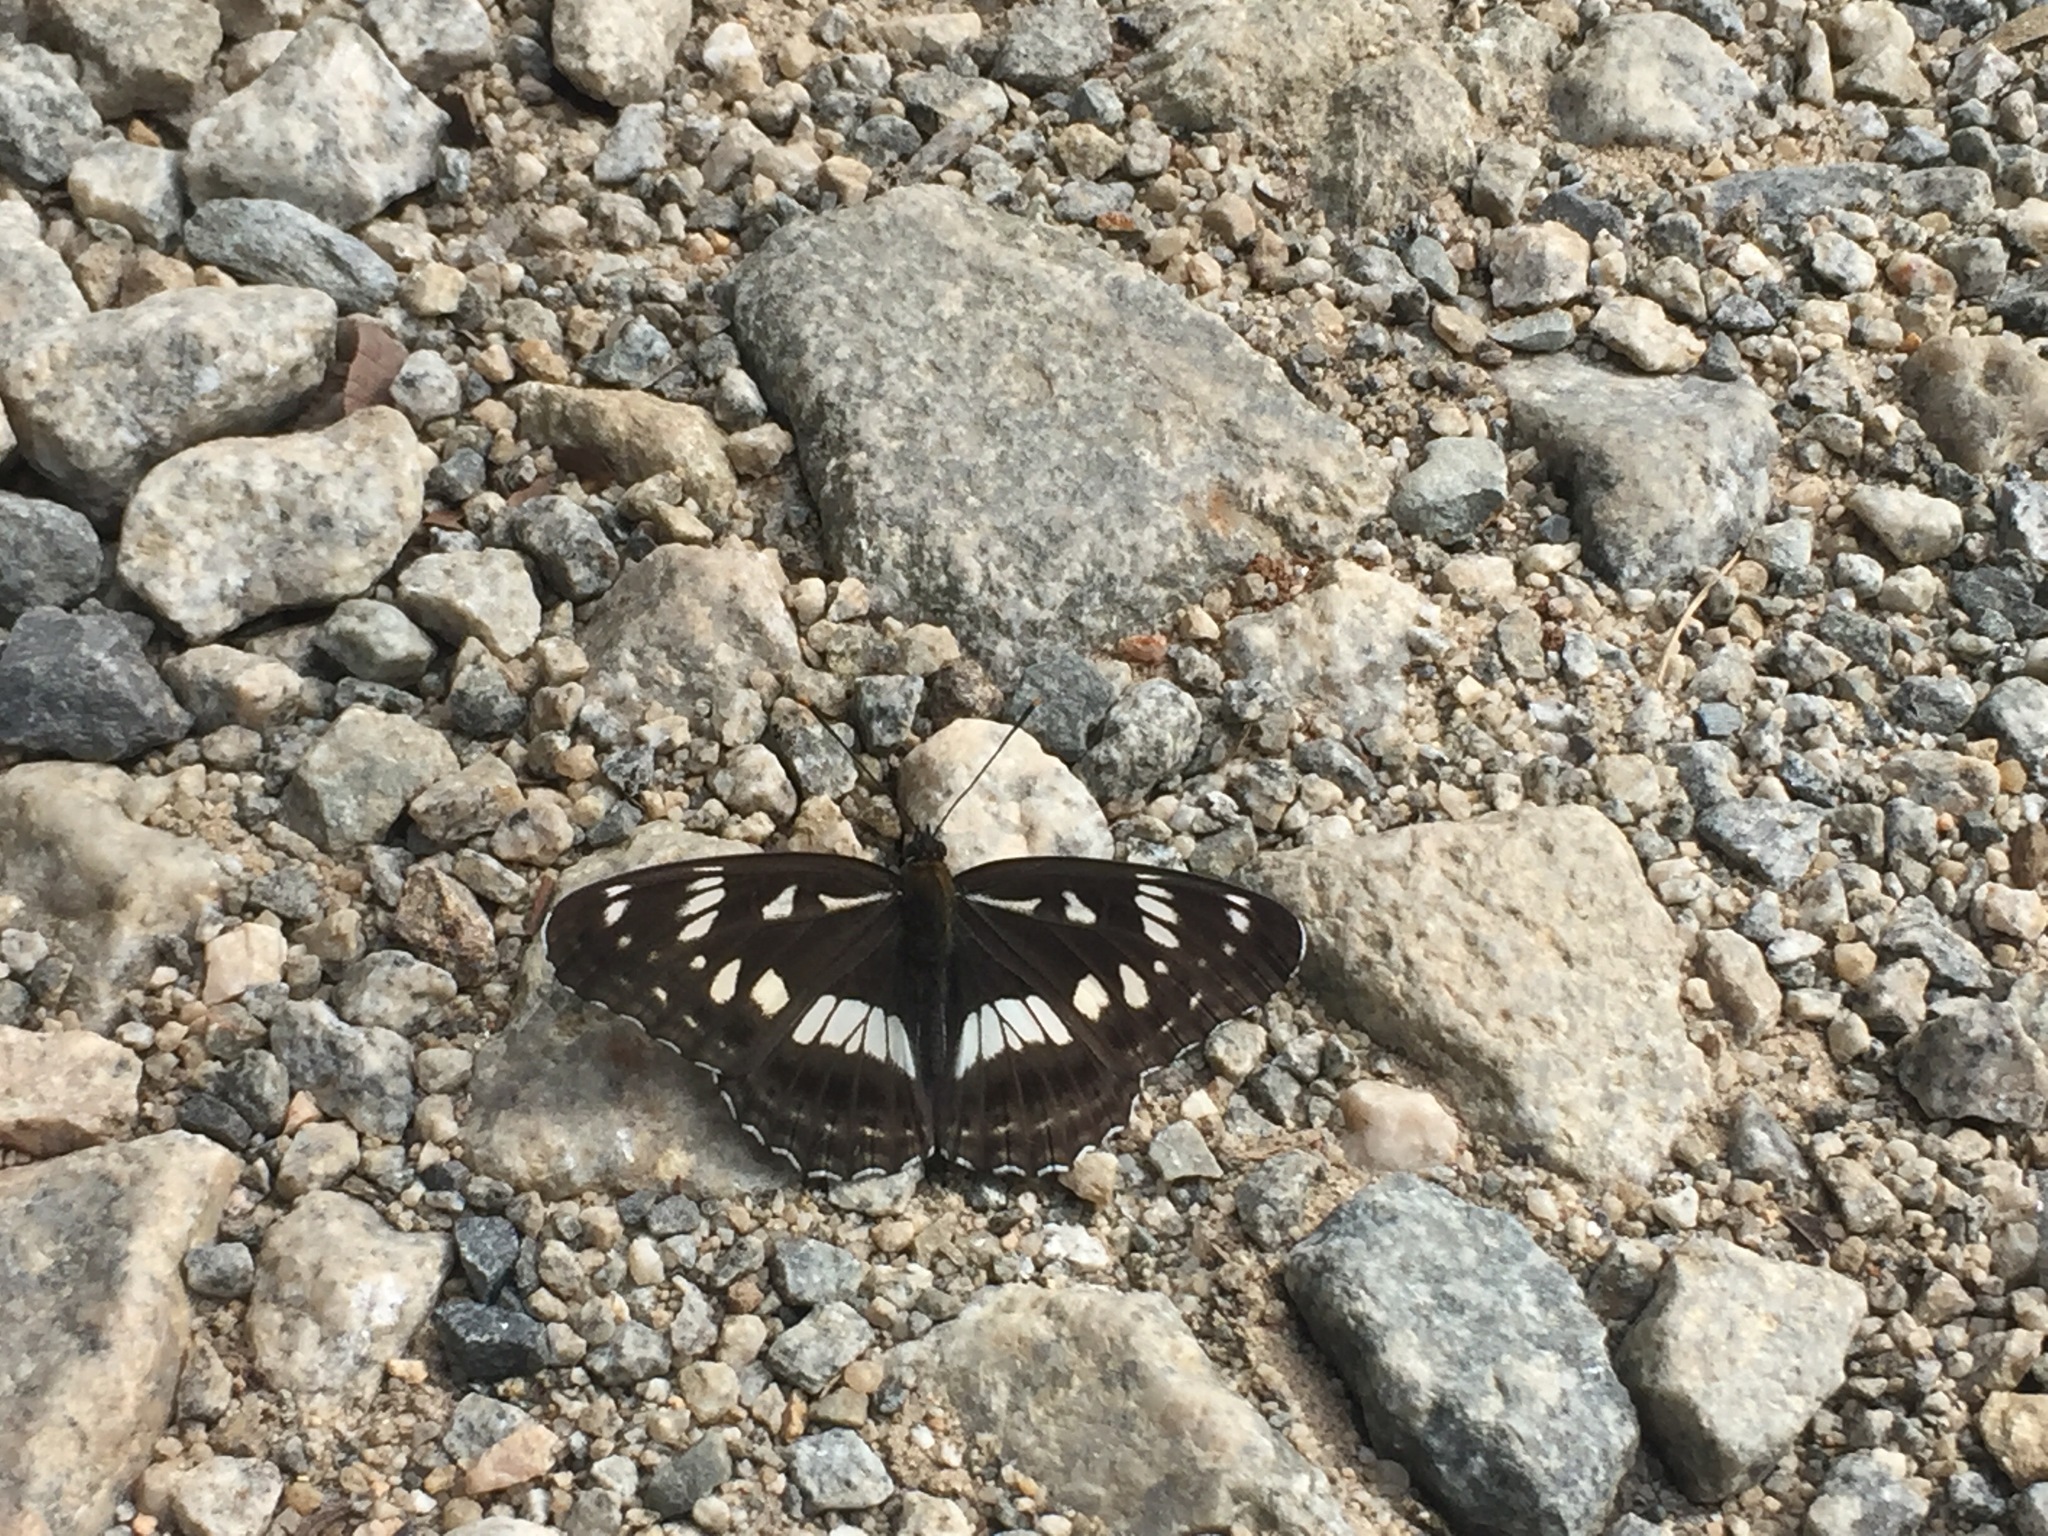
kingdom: Animalia
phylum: Arthropoda
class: Insecta
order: Lepidoptera
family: Nymphalidae
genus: Limenitis
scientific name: Limenitis doerriesi
